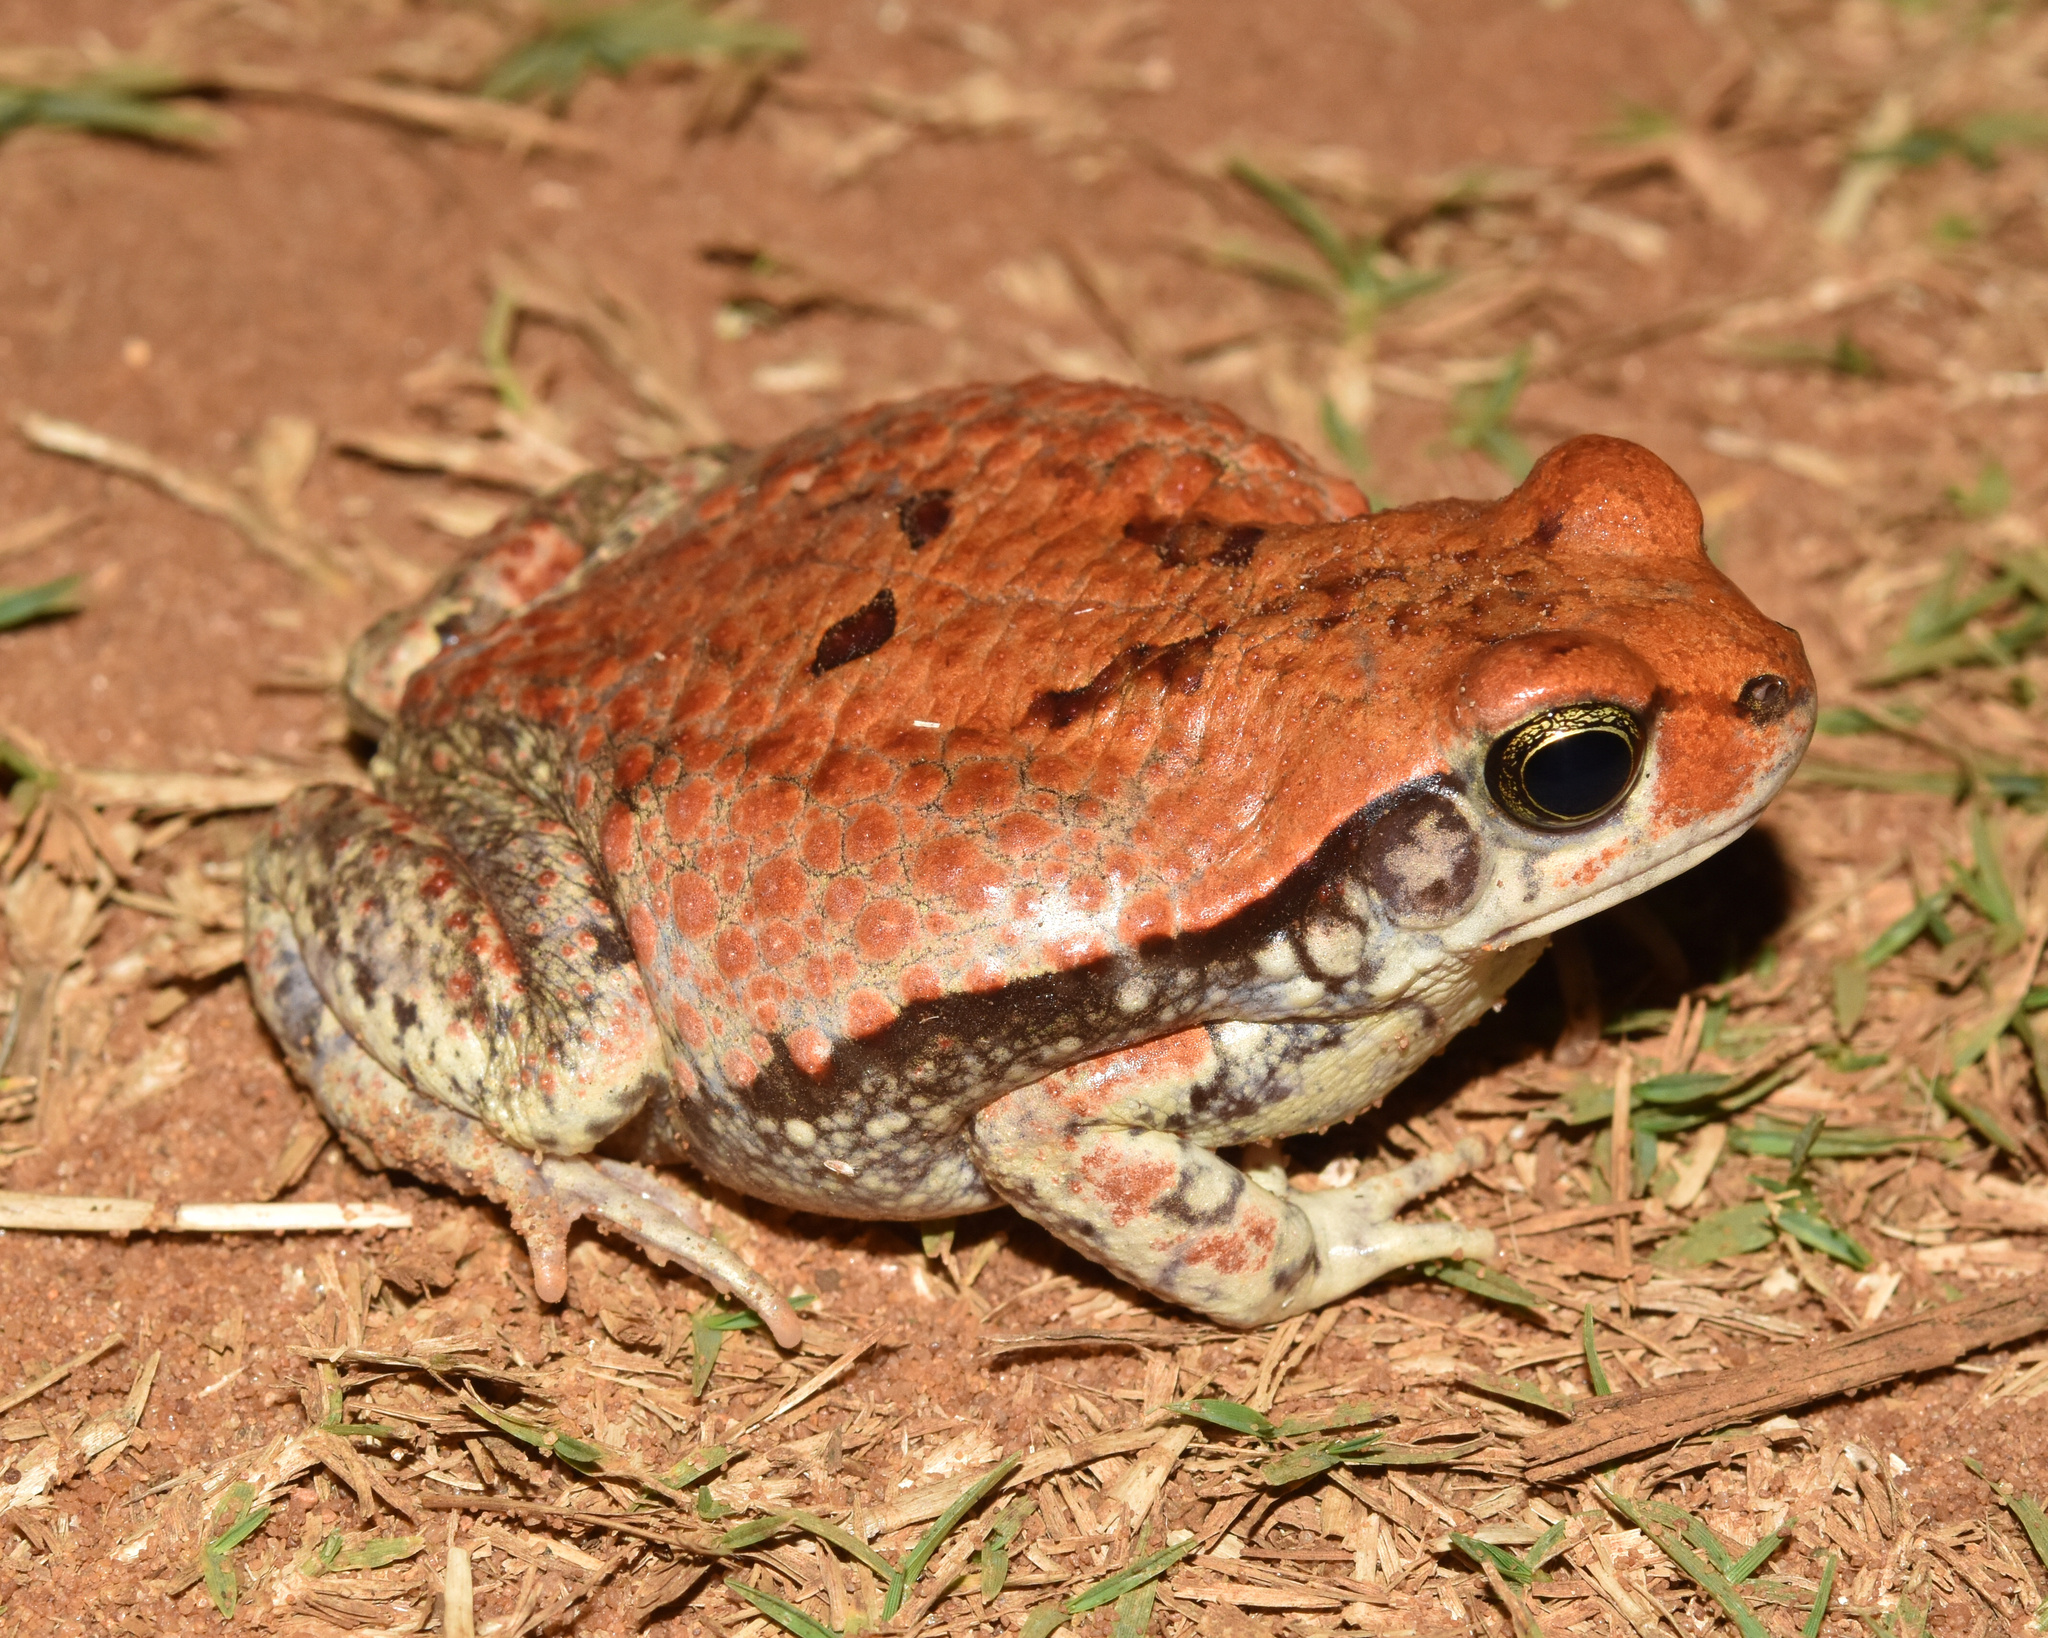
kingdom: Animalia
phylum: Chordata
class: Amphibia
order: Anura
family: Bufonidae
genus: Schismaderma
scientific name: Schismaderma carens
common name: African split-skin toad
